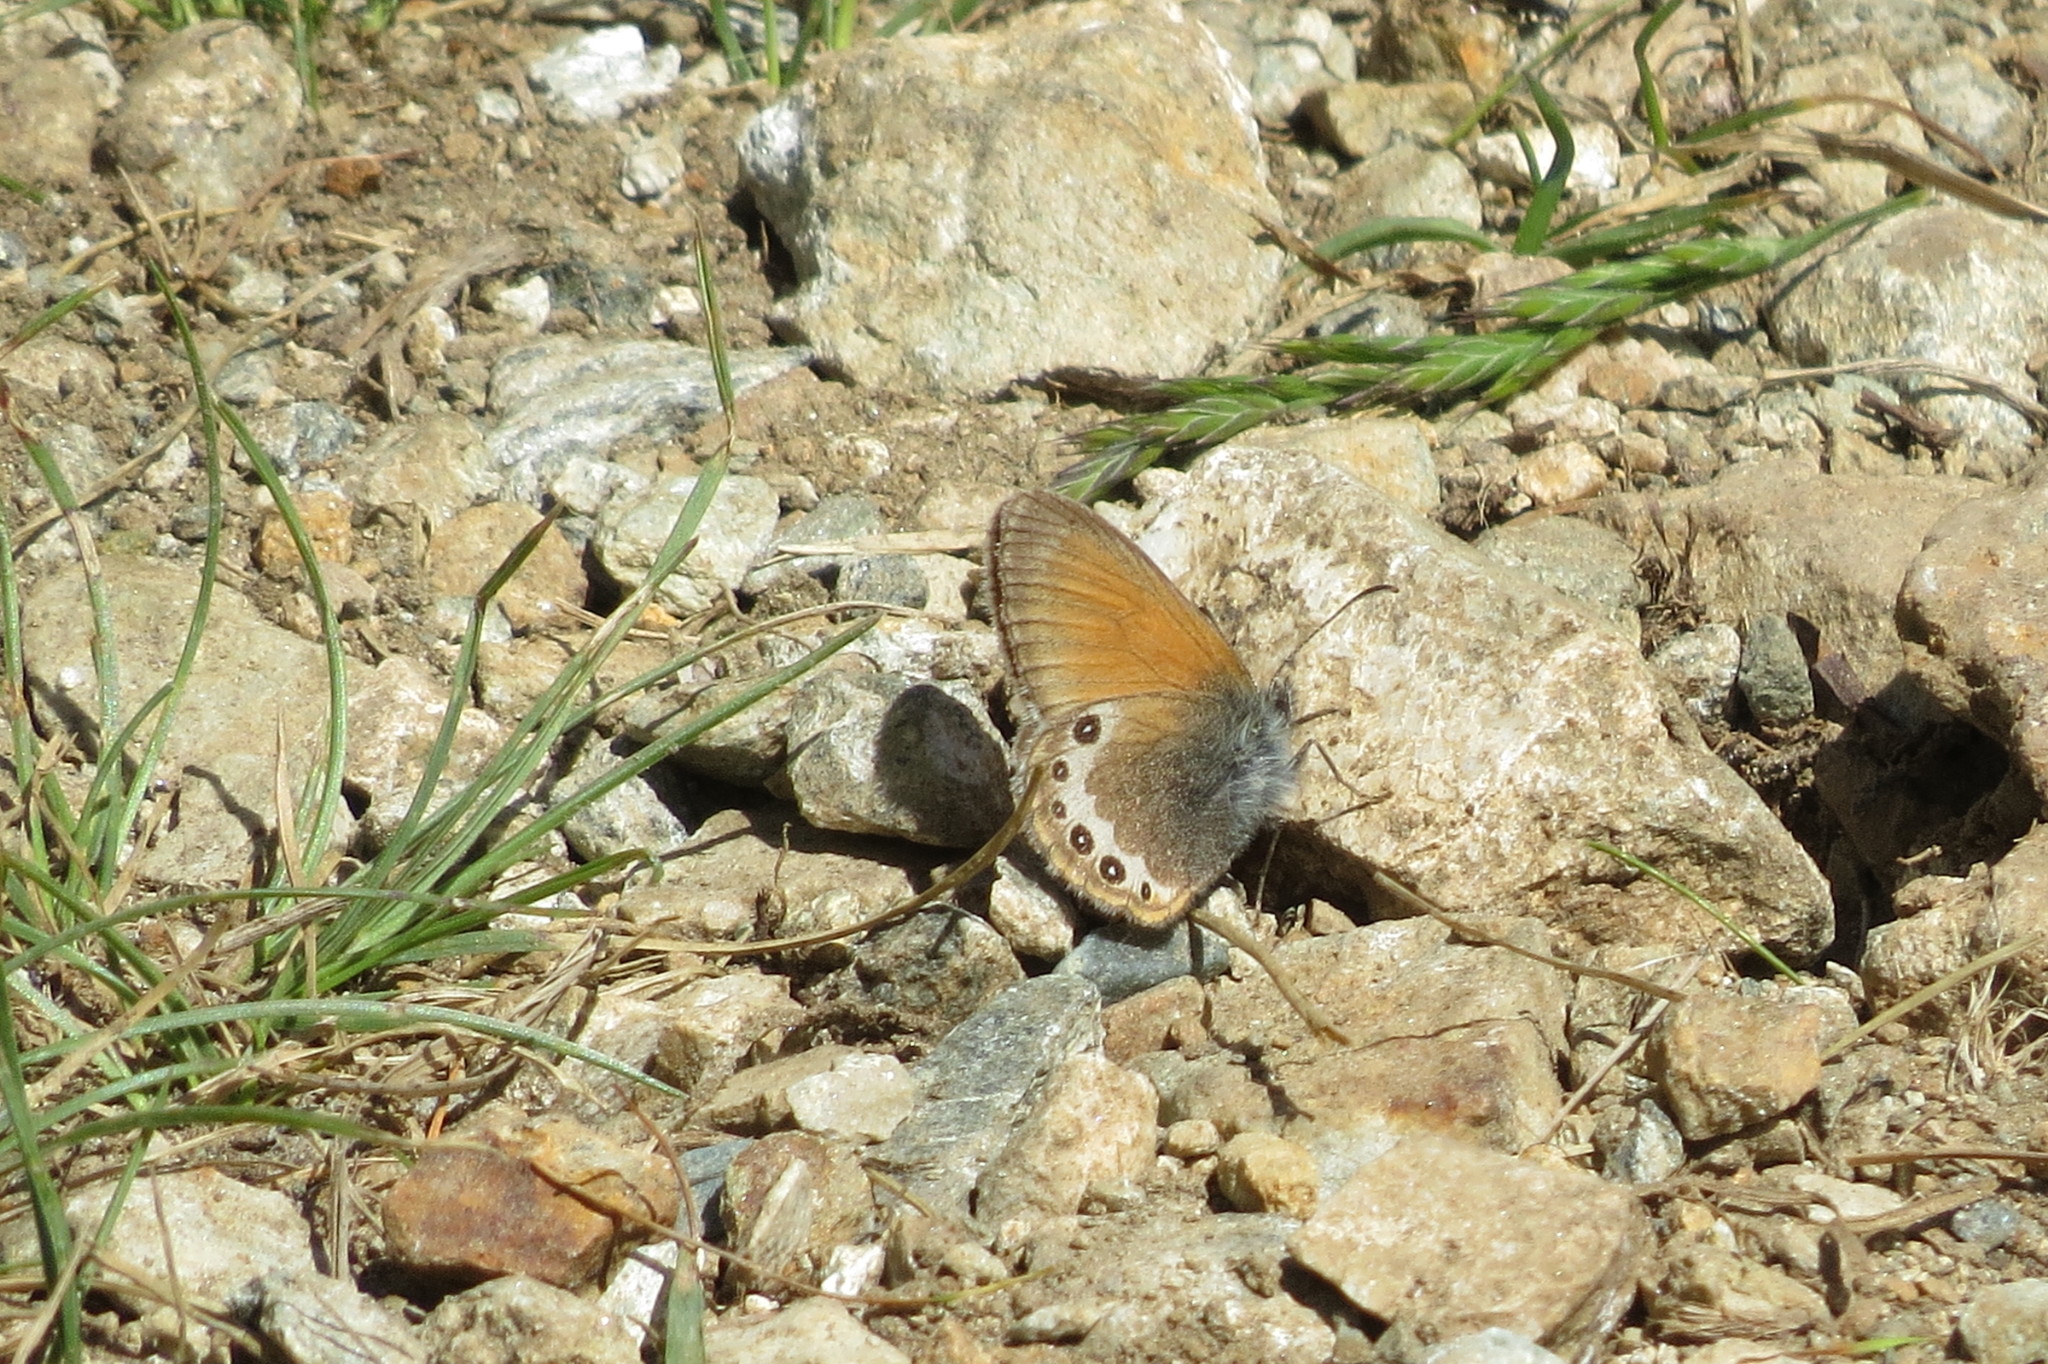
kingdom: Animalia
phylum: Arthropoda
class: Insecta
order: Lepidoptera
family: Nymphalidae
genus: Coenonympha
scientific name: Coenonympha
